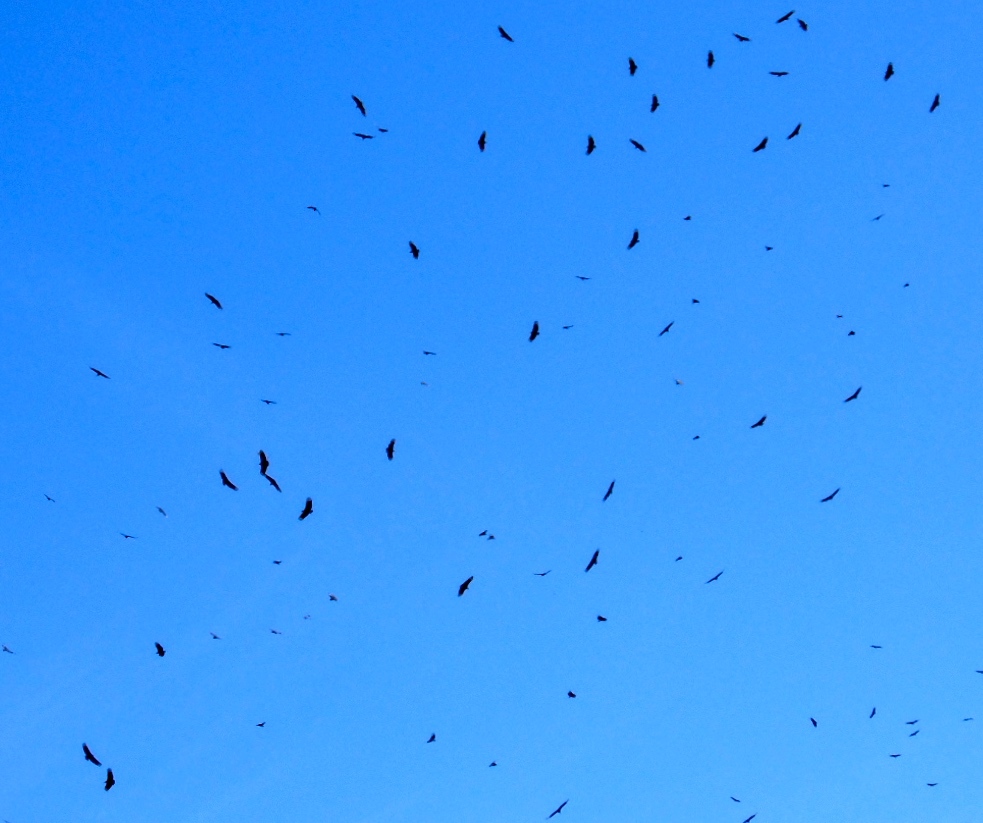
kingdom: Animalia
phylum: Chordata
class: Aves
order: Accipitriformes
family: Cathartidae
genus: Coragyps
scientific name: Coragyps atratus
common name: Black vulture
